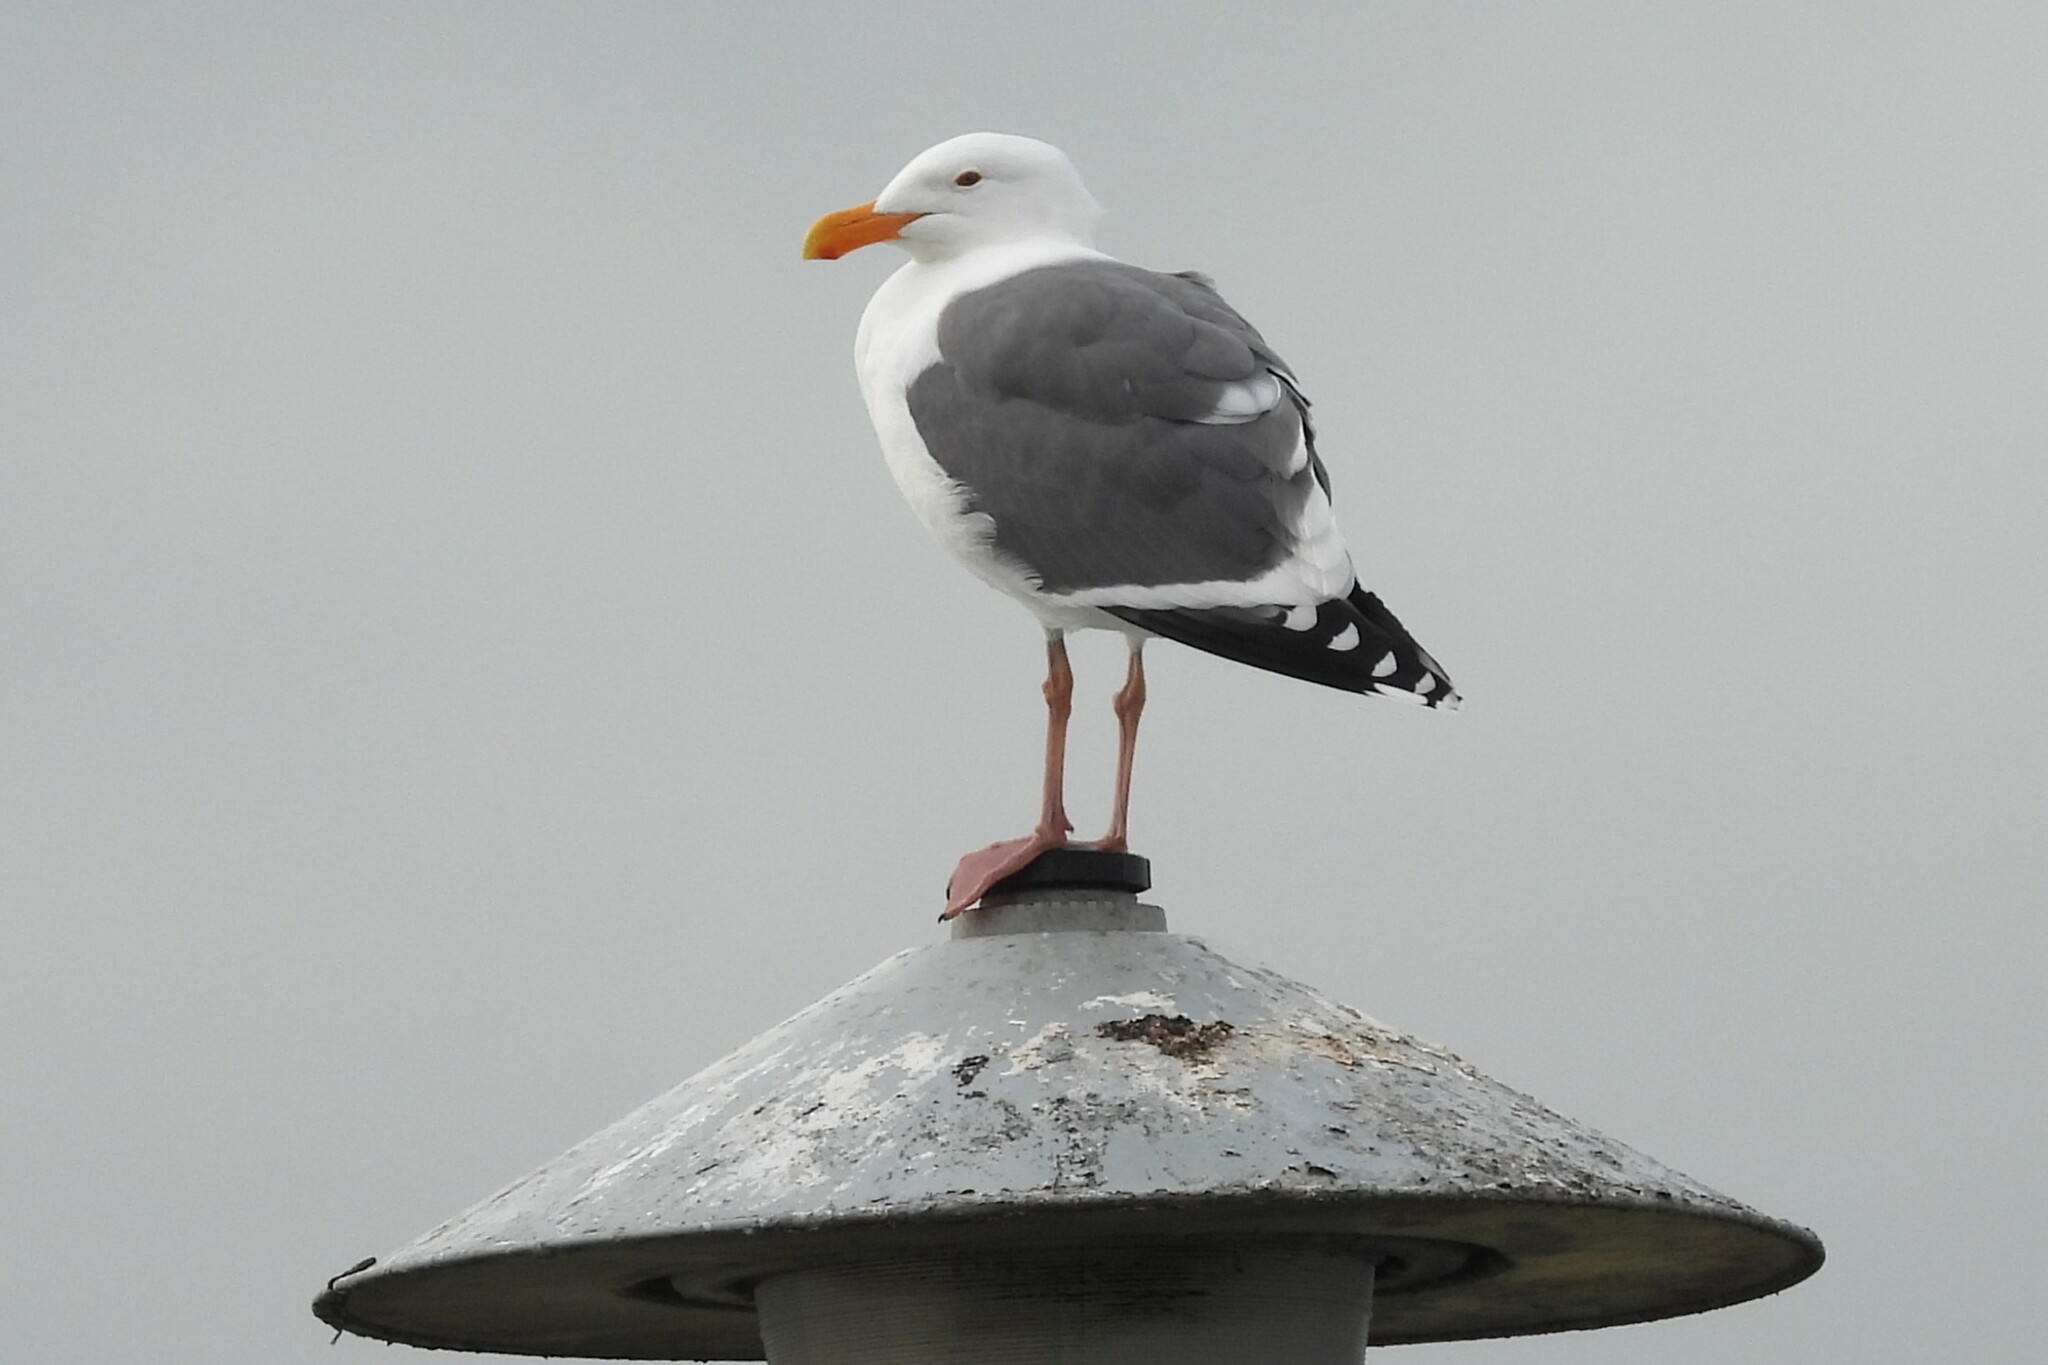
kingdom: Animalia
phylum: Chordata
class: Aves
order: Charadriiformes
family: Laridae
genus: Larus
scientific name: Larus occidentalis
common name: Western gull
